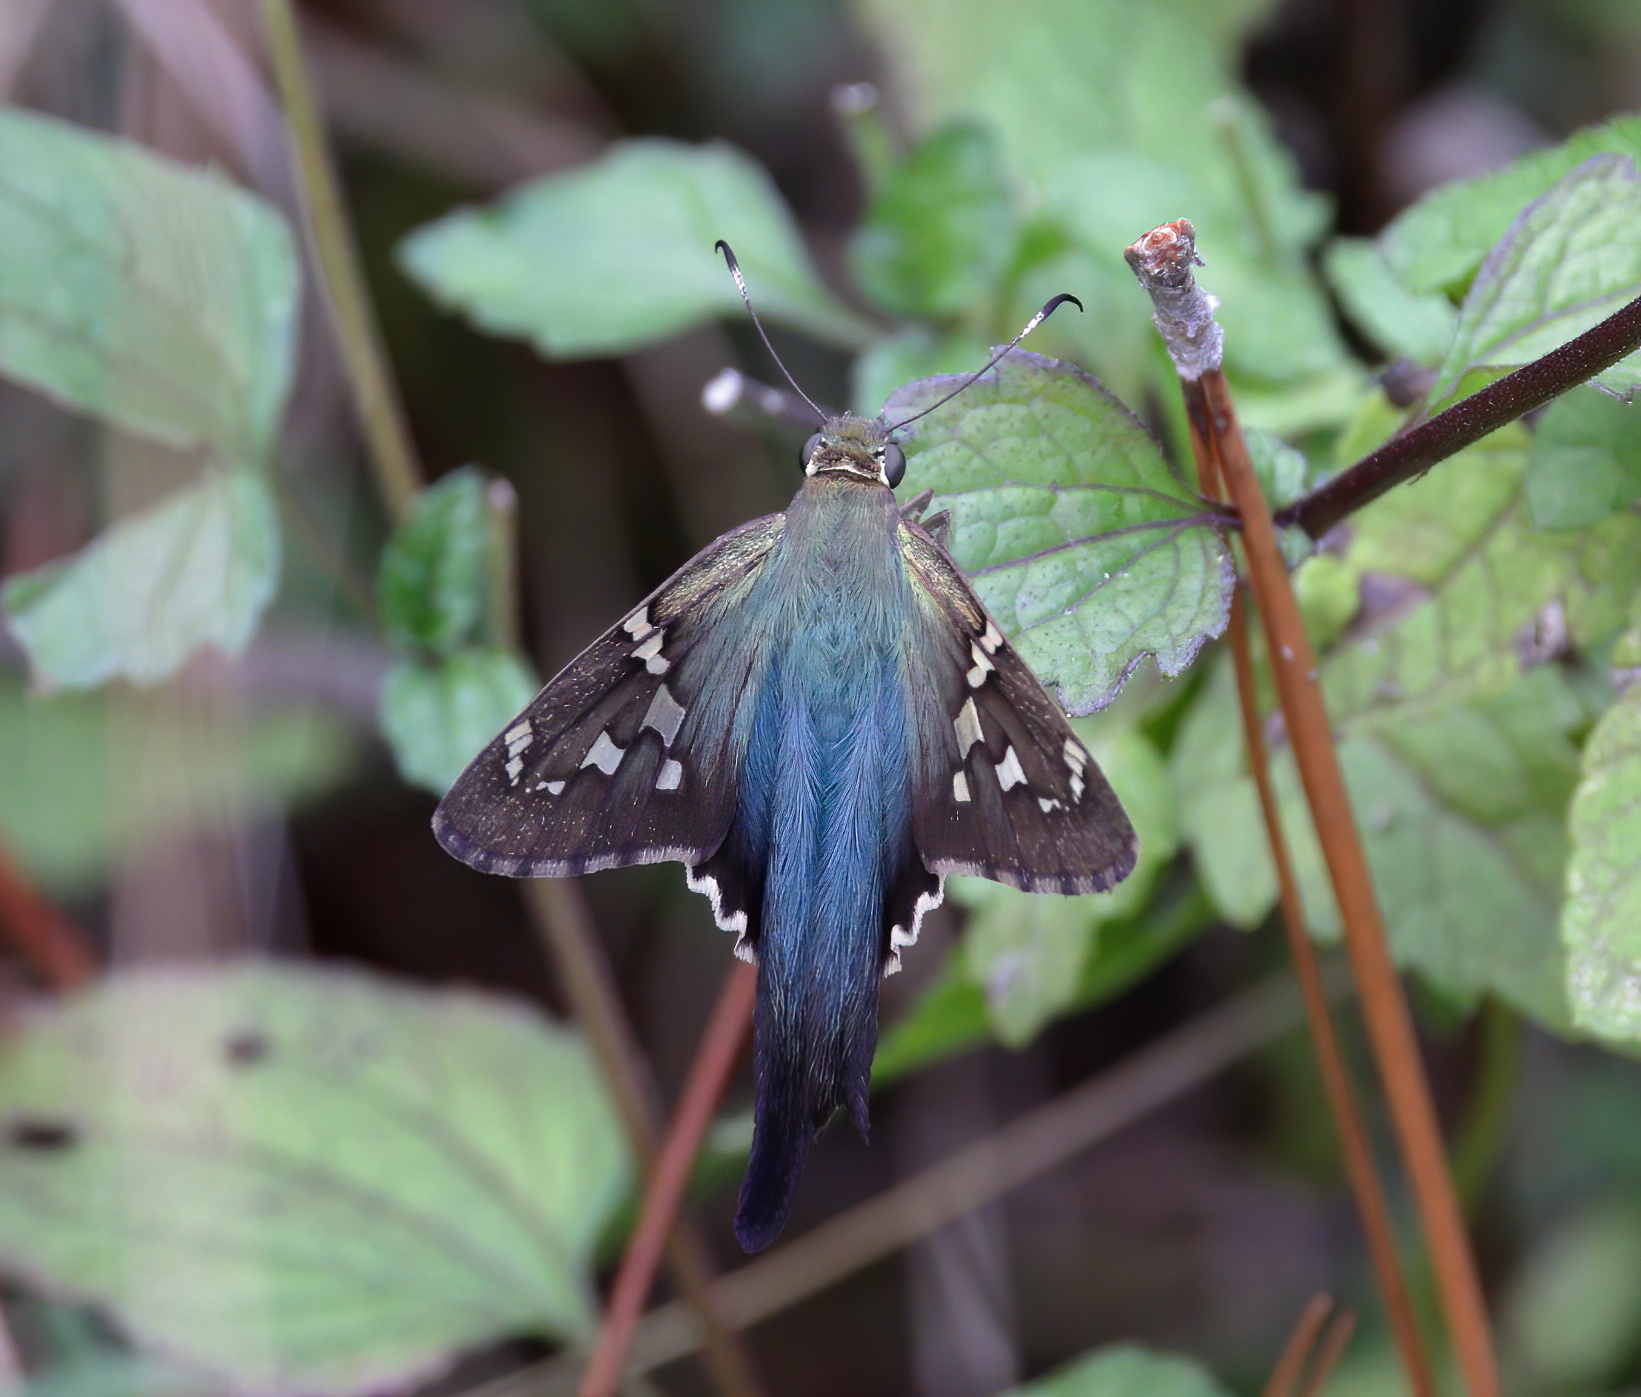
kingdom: Animalia
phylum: Arthropoda
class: Insecta
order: Lepidoptera
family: Hesperiidae
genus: Urbanus
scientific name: Urbanus proteus
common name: Long-tailed skipper
